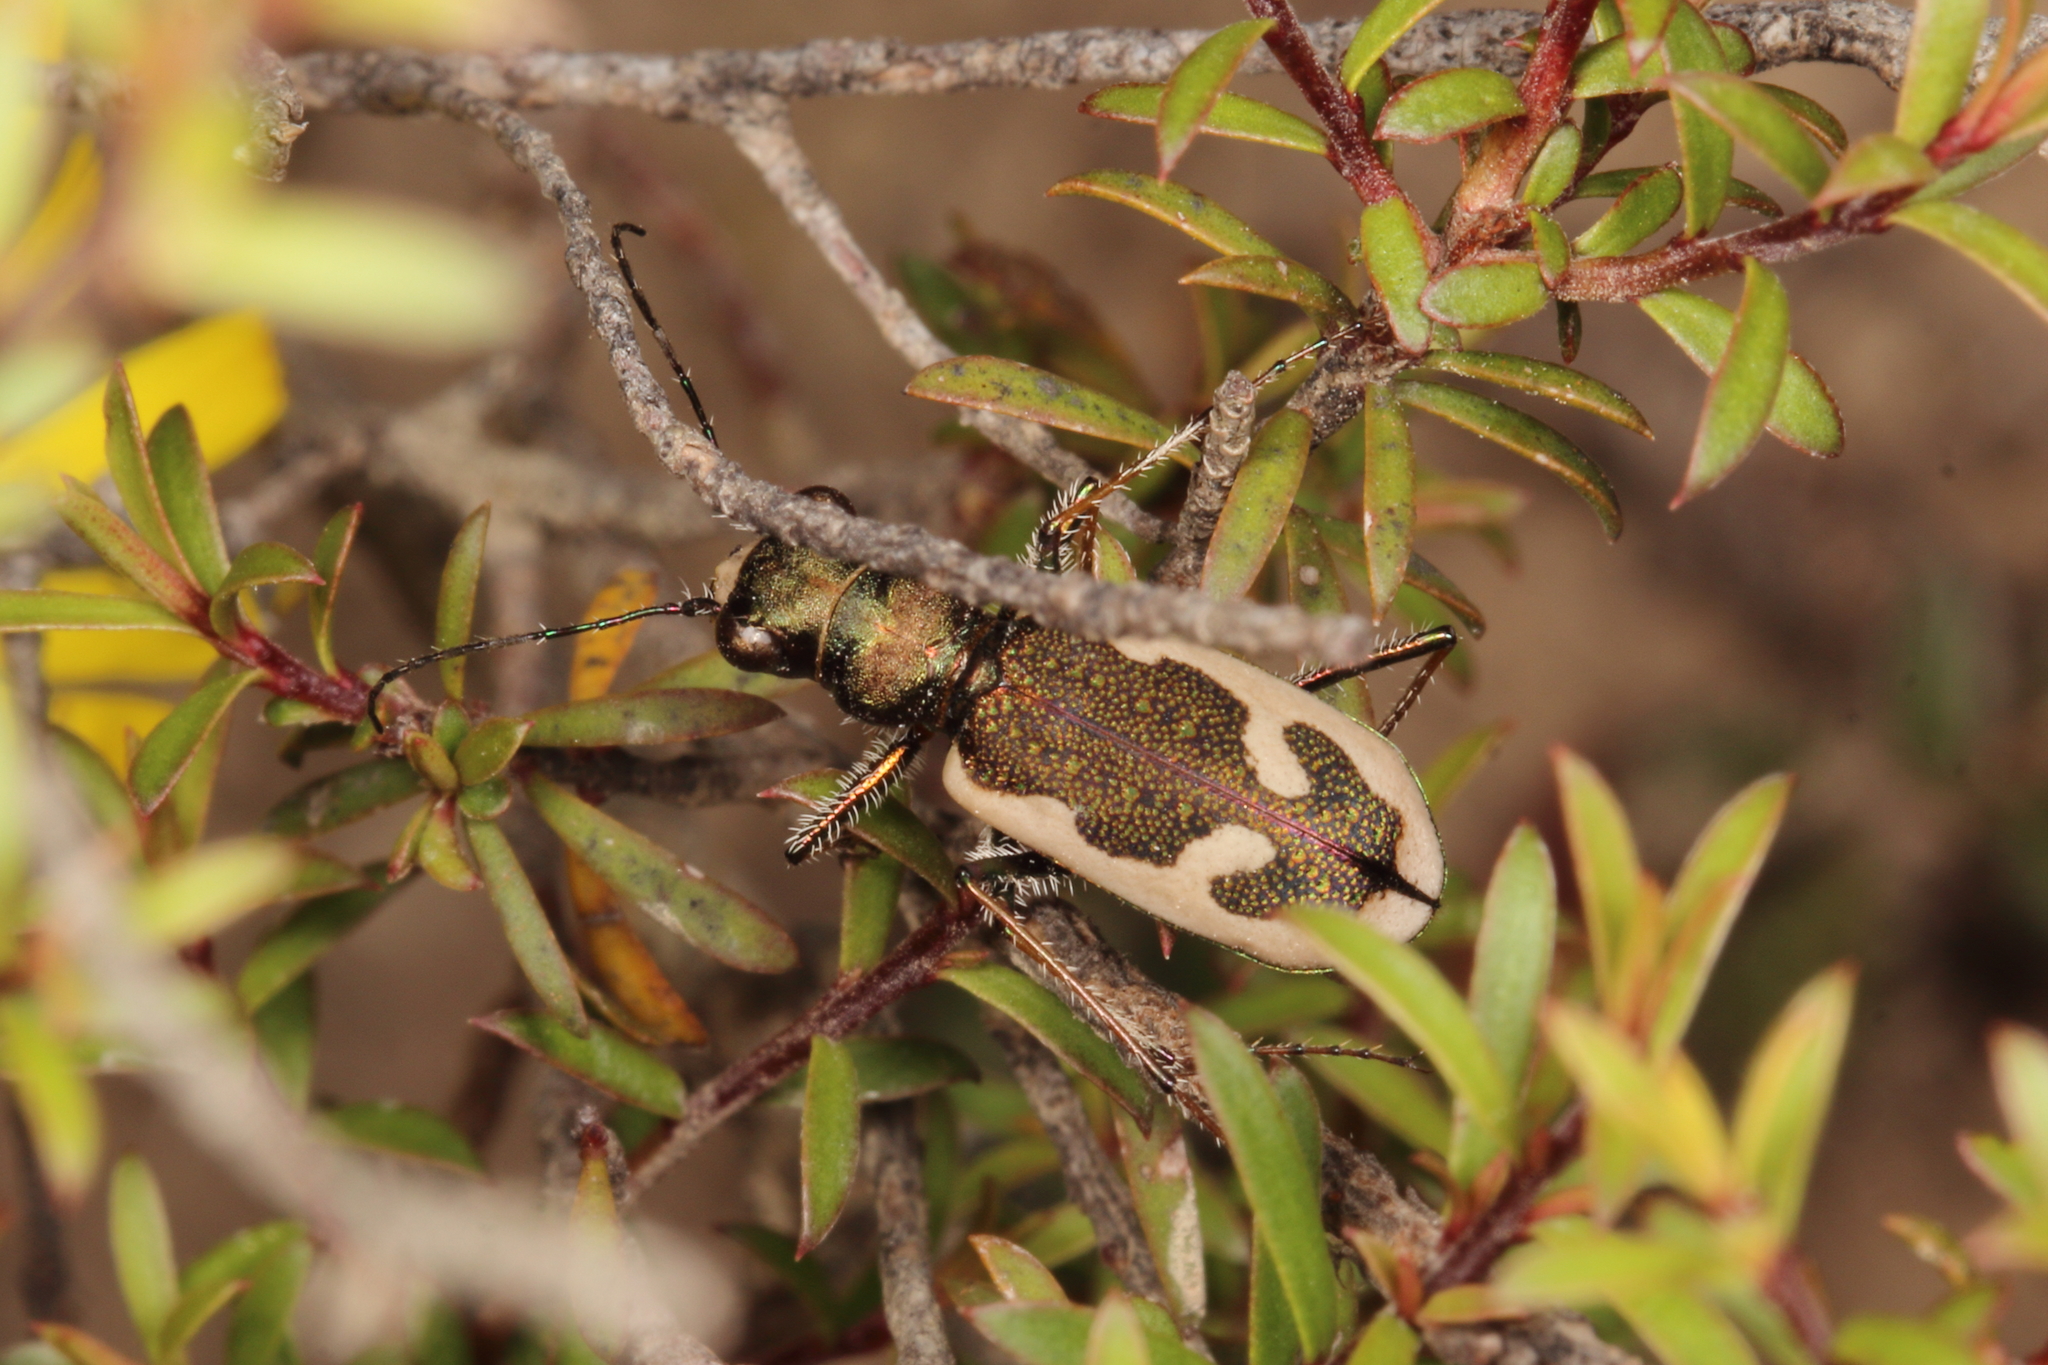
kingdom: Animalia
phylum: Arthropoda
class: Insecta
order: Coleoptera
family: Carabidae
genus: Neocicindela
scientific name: Neocicindela latecincta
